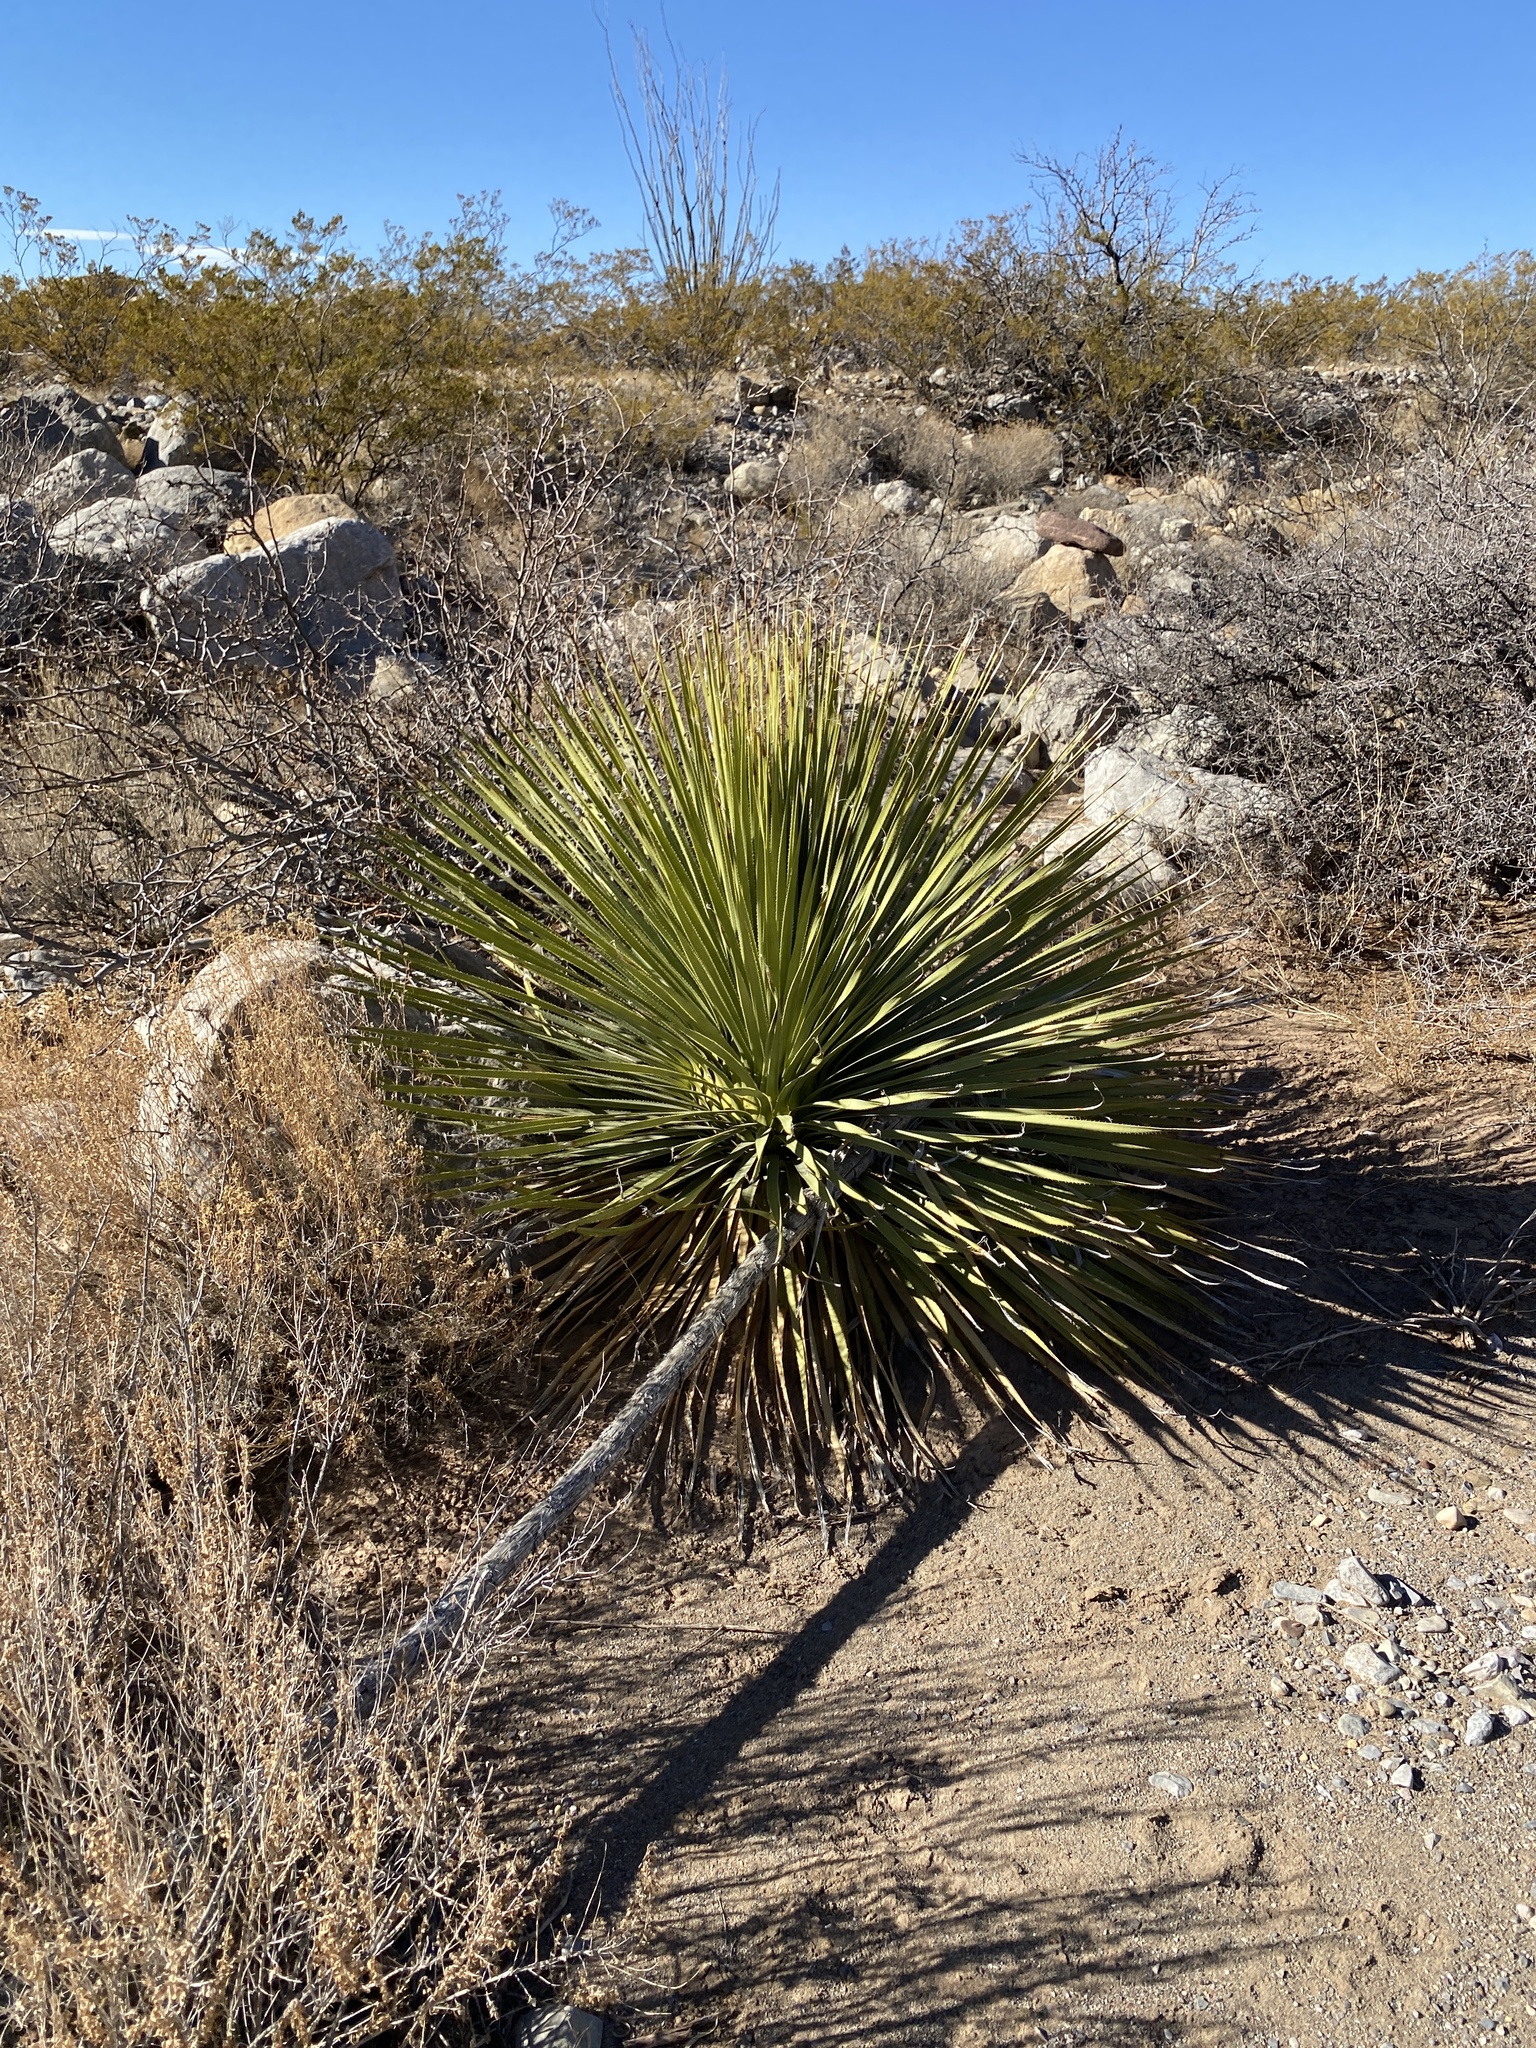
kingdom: Plantae
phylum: Tracheophyta
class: Liliopsida
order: Asparagales
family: Asparagaceae
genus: Dasylirion
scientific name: Dasylirion wheeleri
